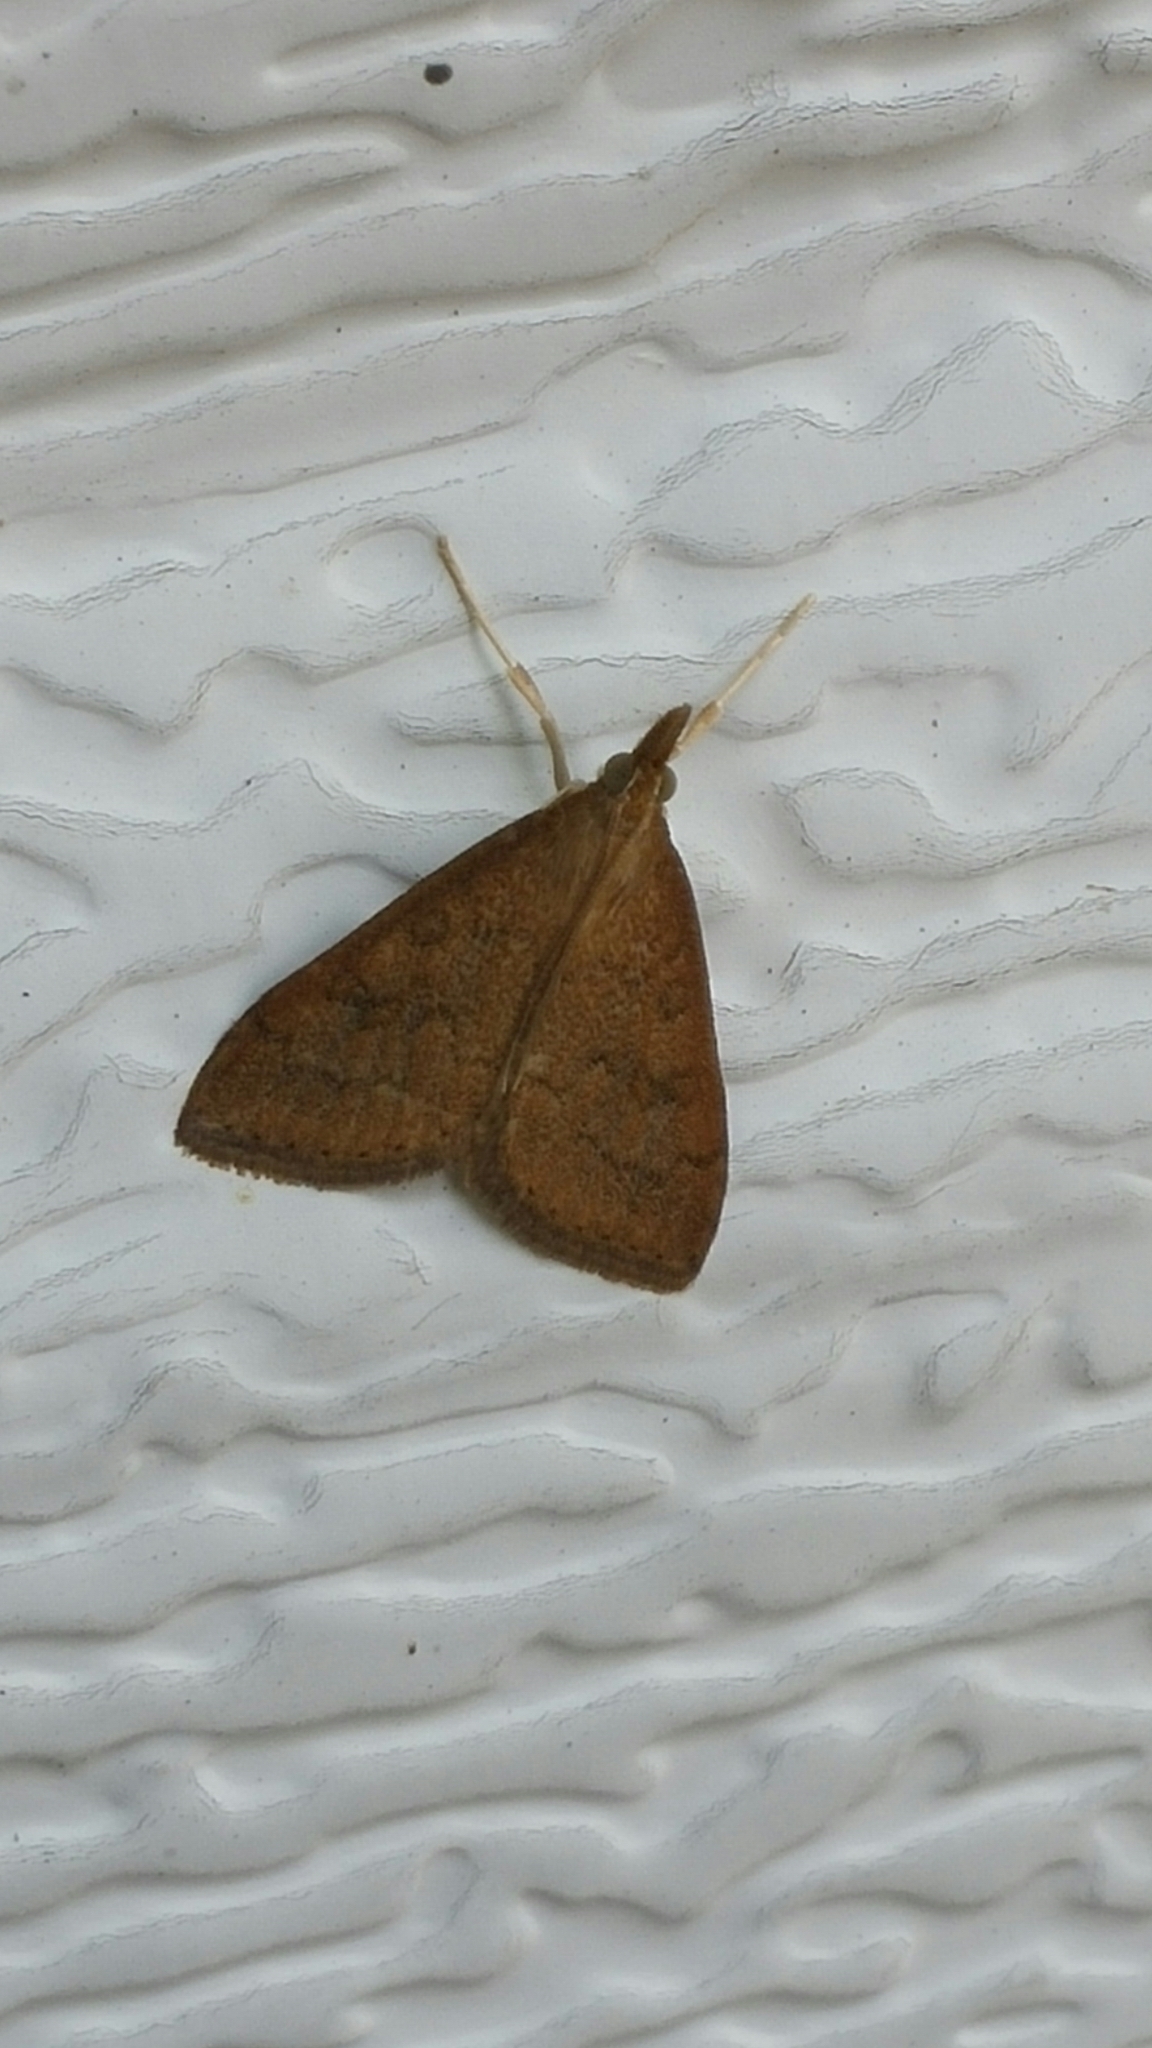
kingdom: Animalia
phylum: Arthropoda
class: Insecta
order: Lepidoptera
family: Crambidae
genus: Udea
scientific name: Udea rubigalis
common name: Celery leaftier moth
